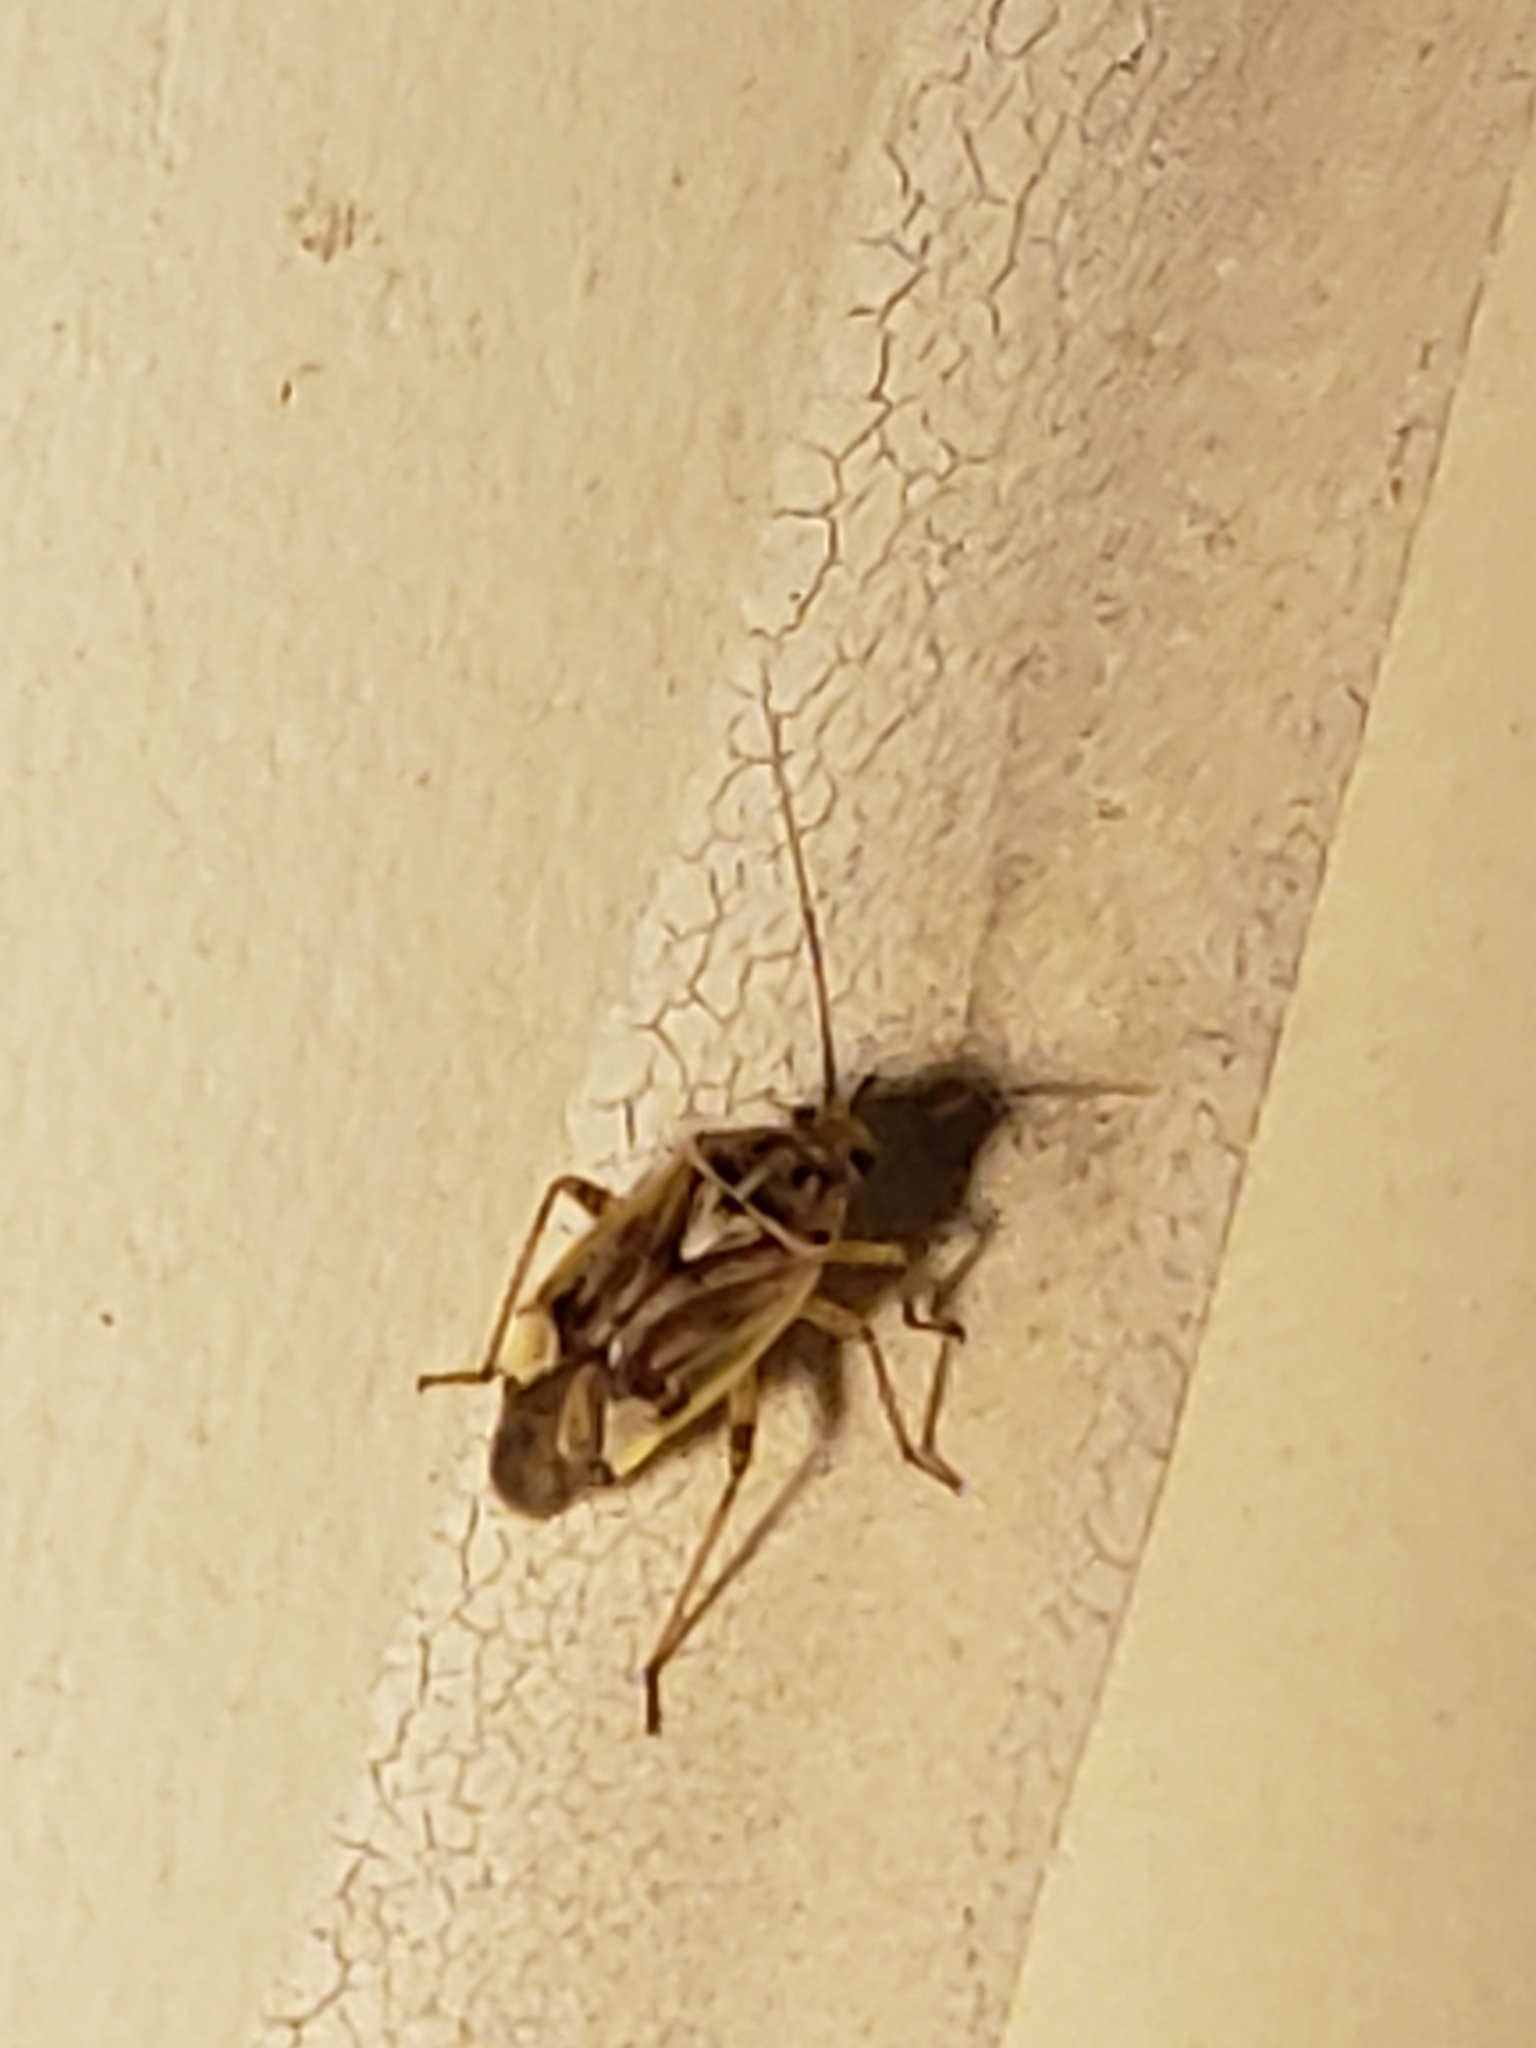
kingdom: Animalia
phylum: Arthropoda
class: Insecta
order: Hemiptera
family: Miridae
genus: Lygus
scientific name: Lygus lineolaris
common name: North american tarnished plant bug
